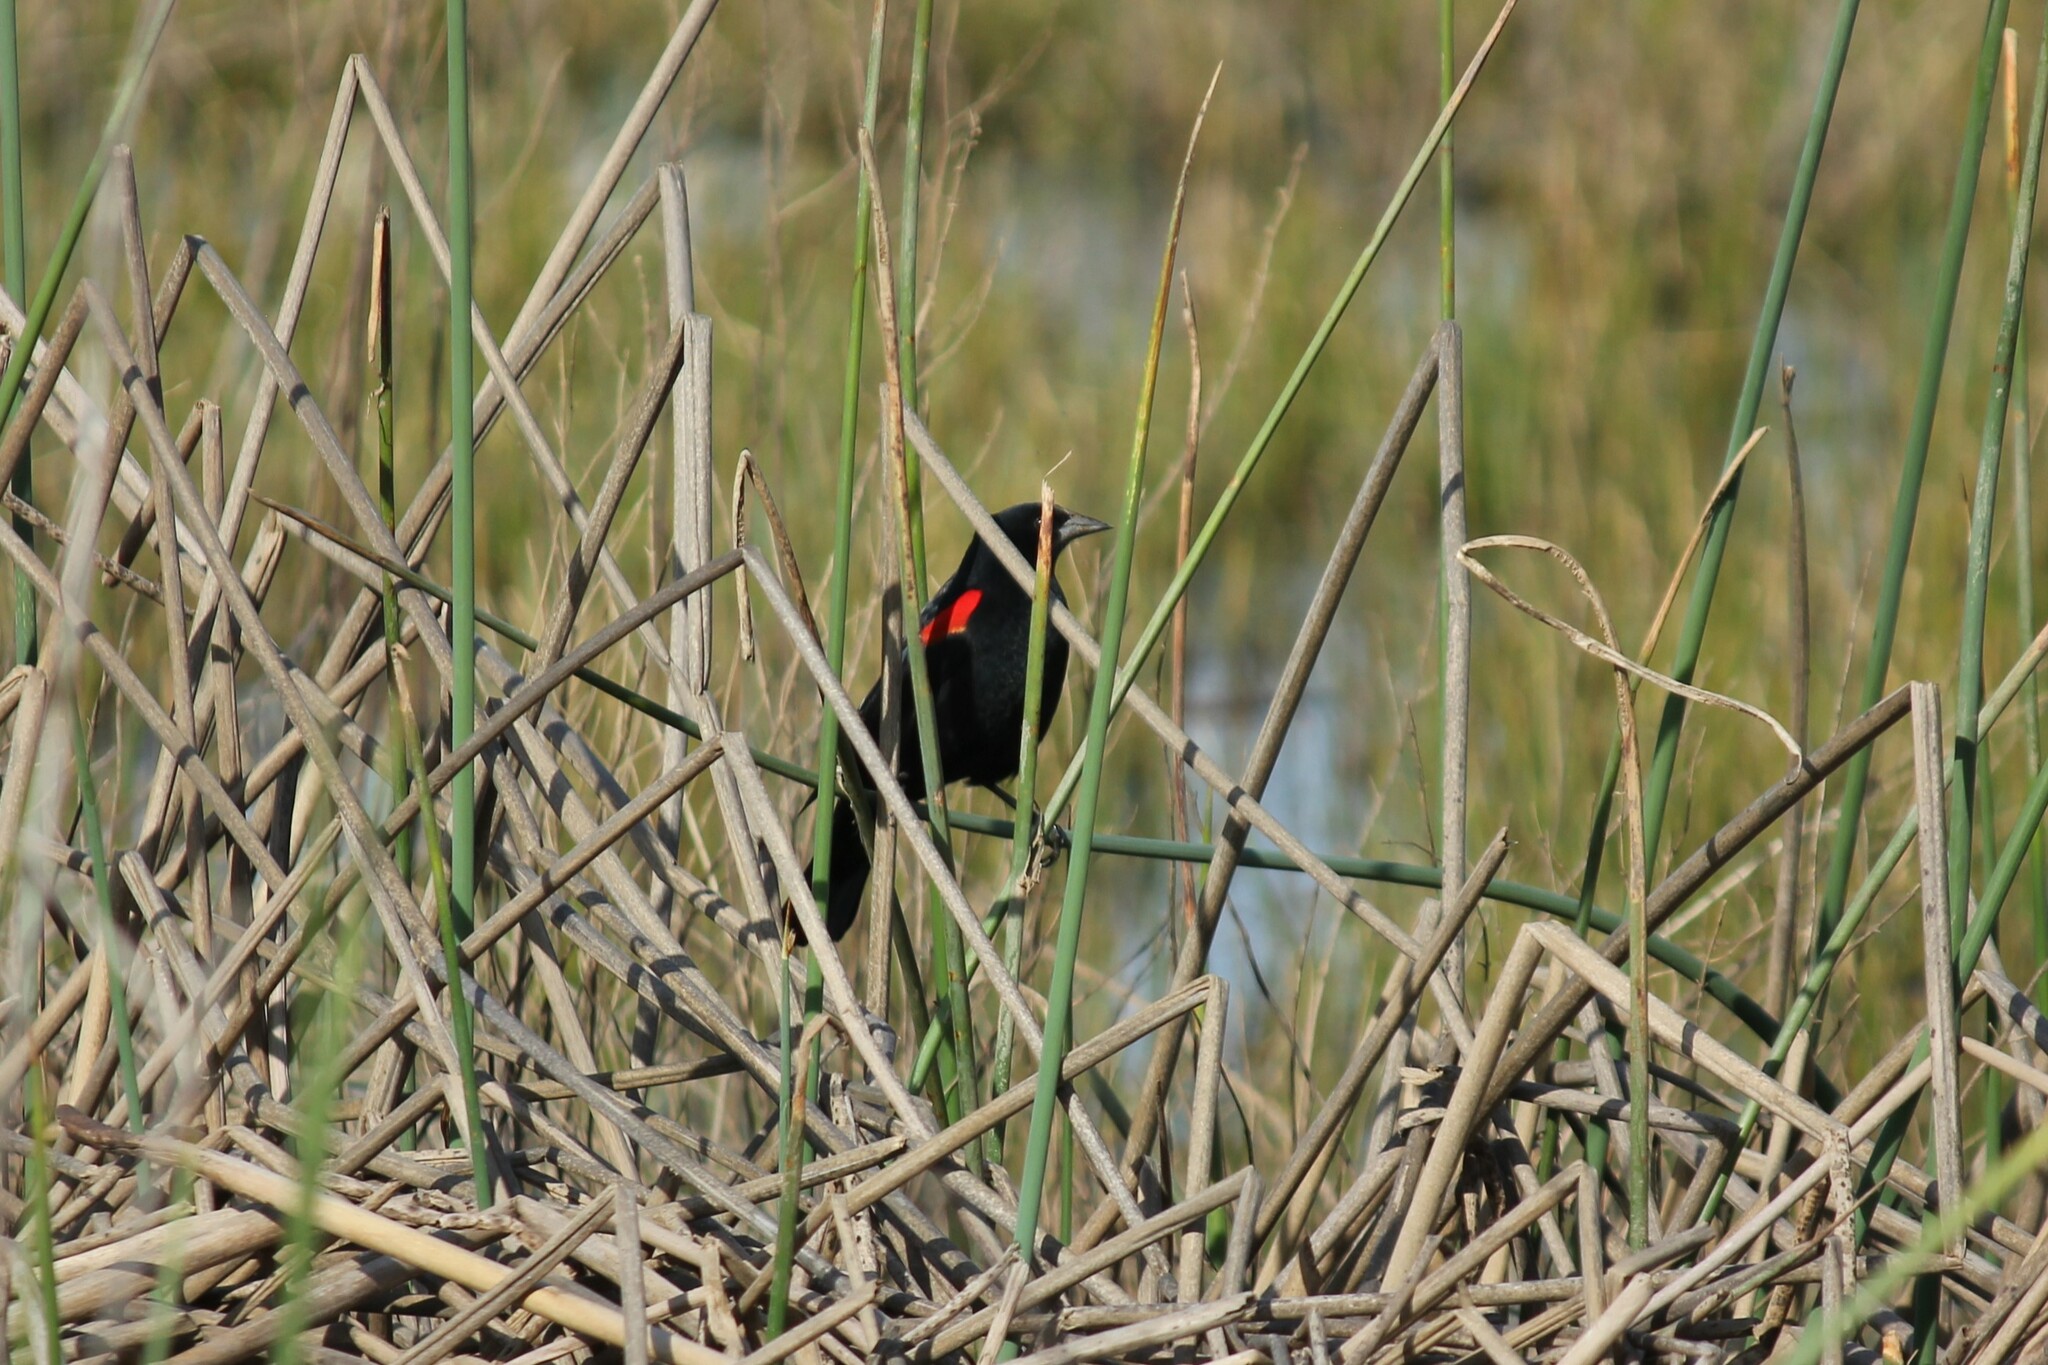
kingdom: Animalia
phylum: Chordata
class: Aves
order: Passeriformes
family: Icteridae
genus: Agelaius
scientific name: Agelaius phoeniceus
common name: Red-winged blackbird
